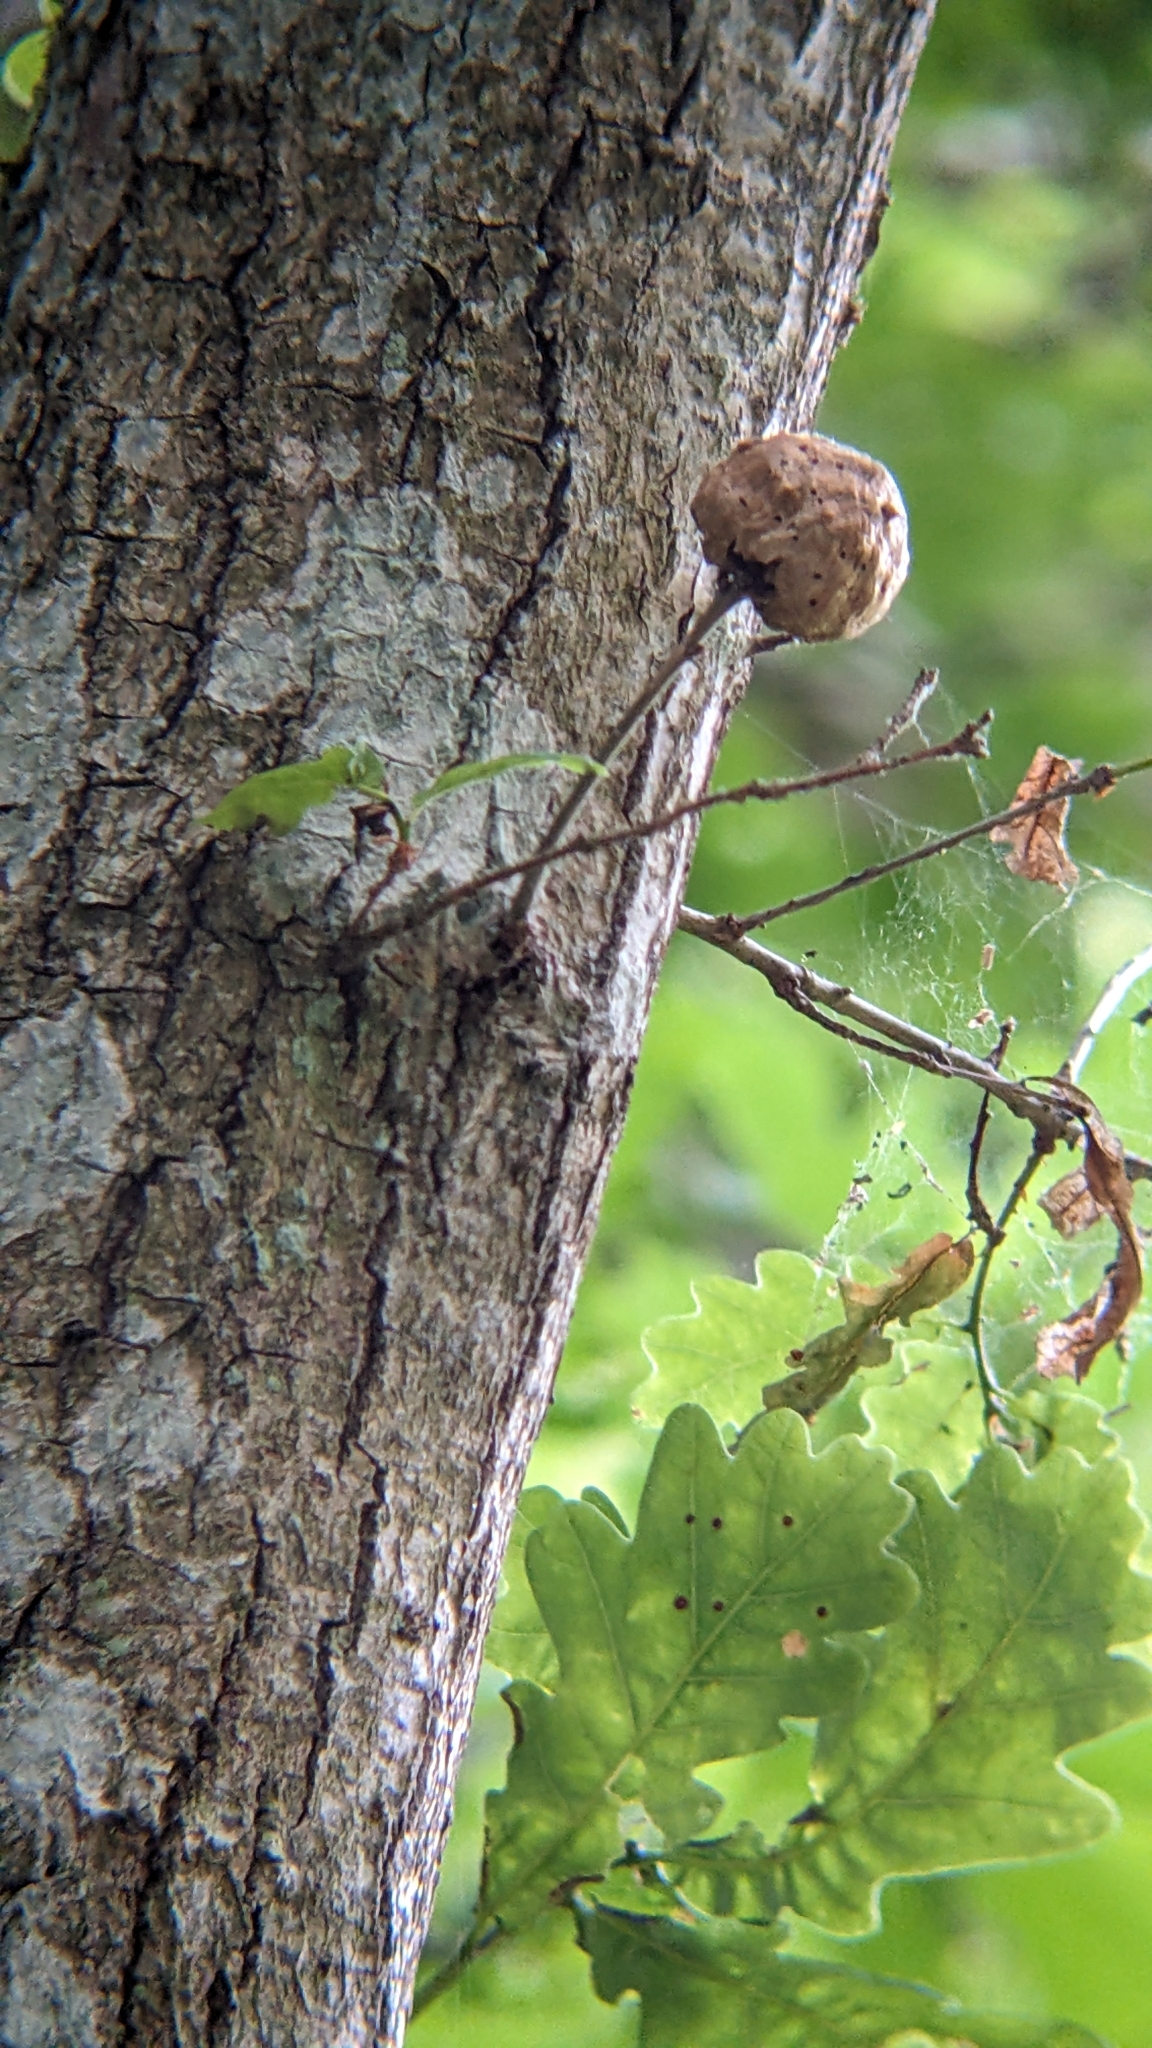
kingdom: Animalia
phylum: Arthropoda
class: Insecta
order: Hymenoptera
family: Cynipidae
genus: Biorhiza
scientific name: Biorhiza pallida
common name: Oak apple
